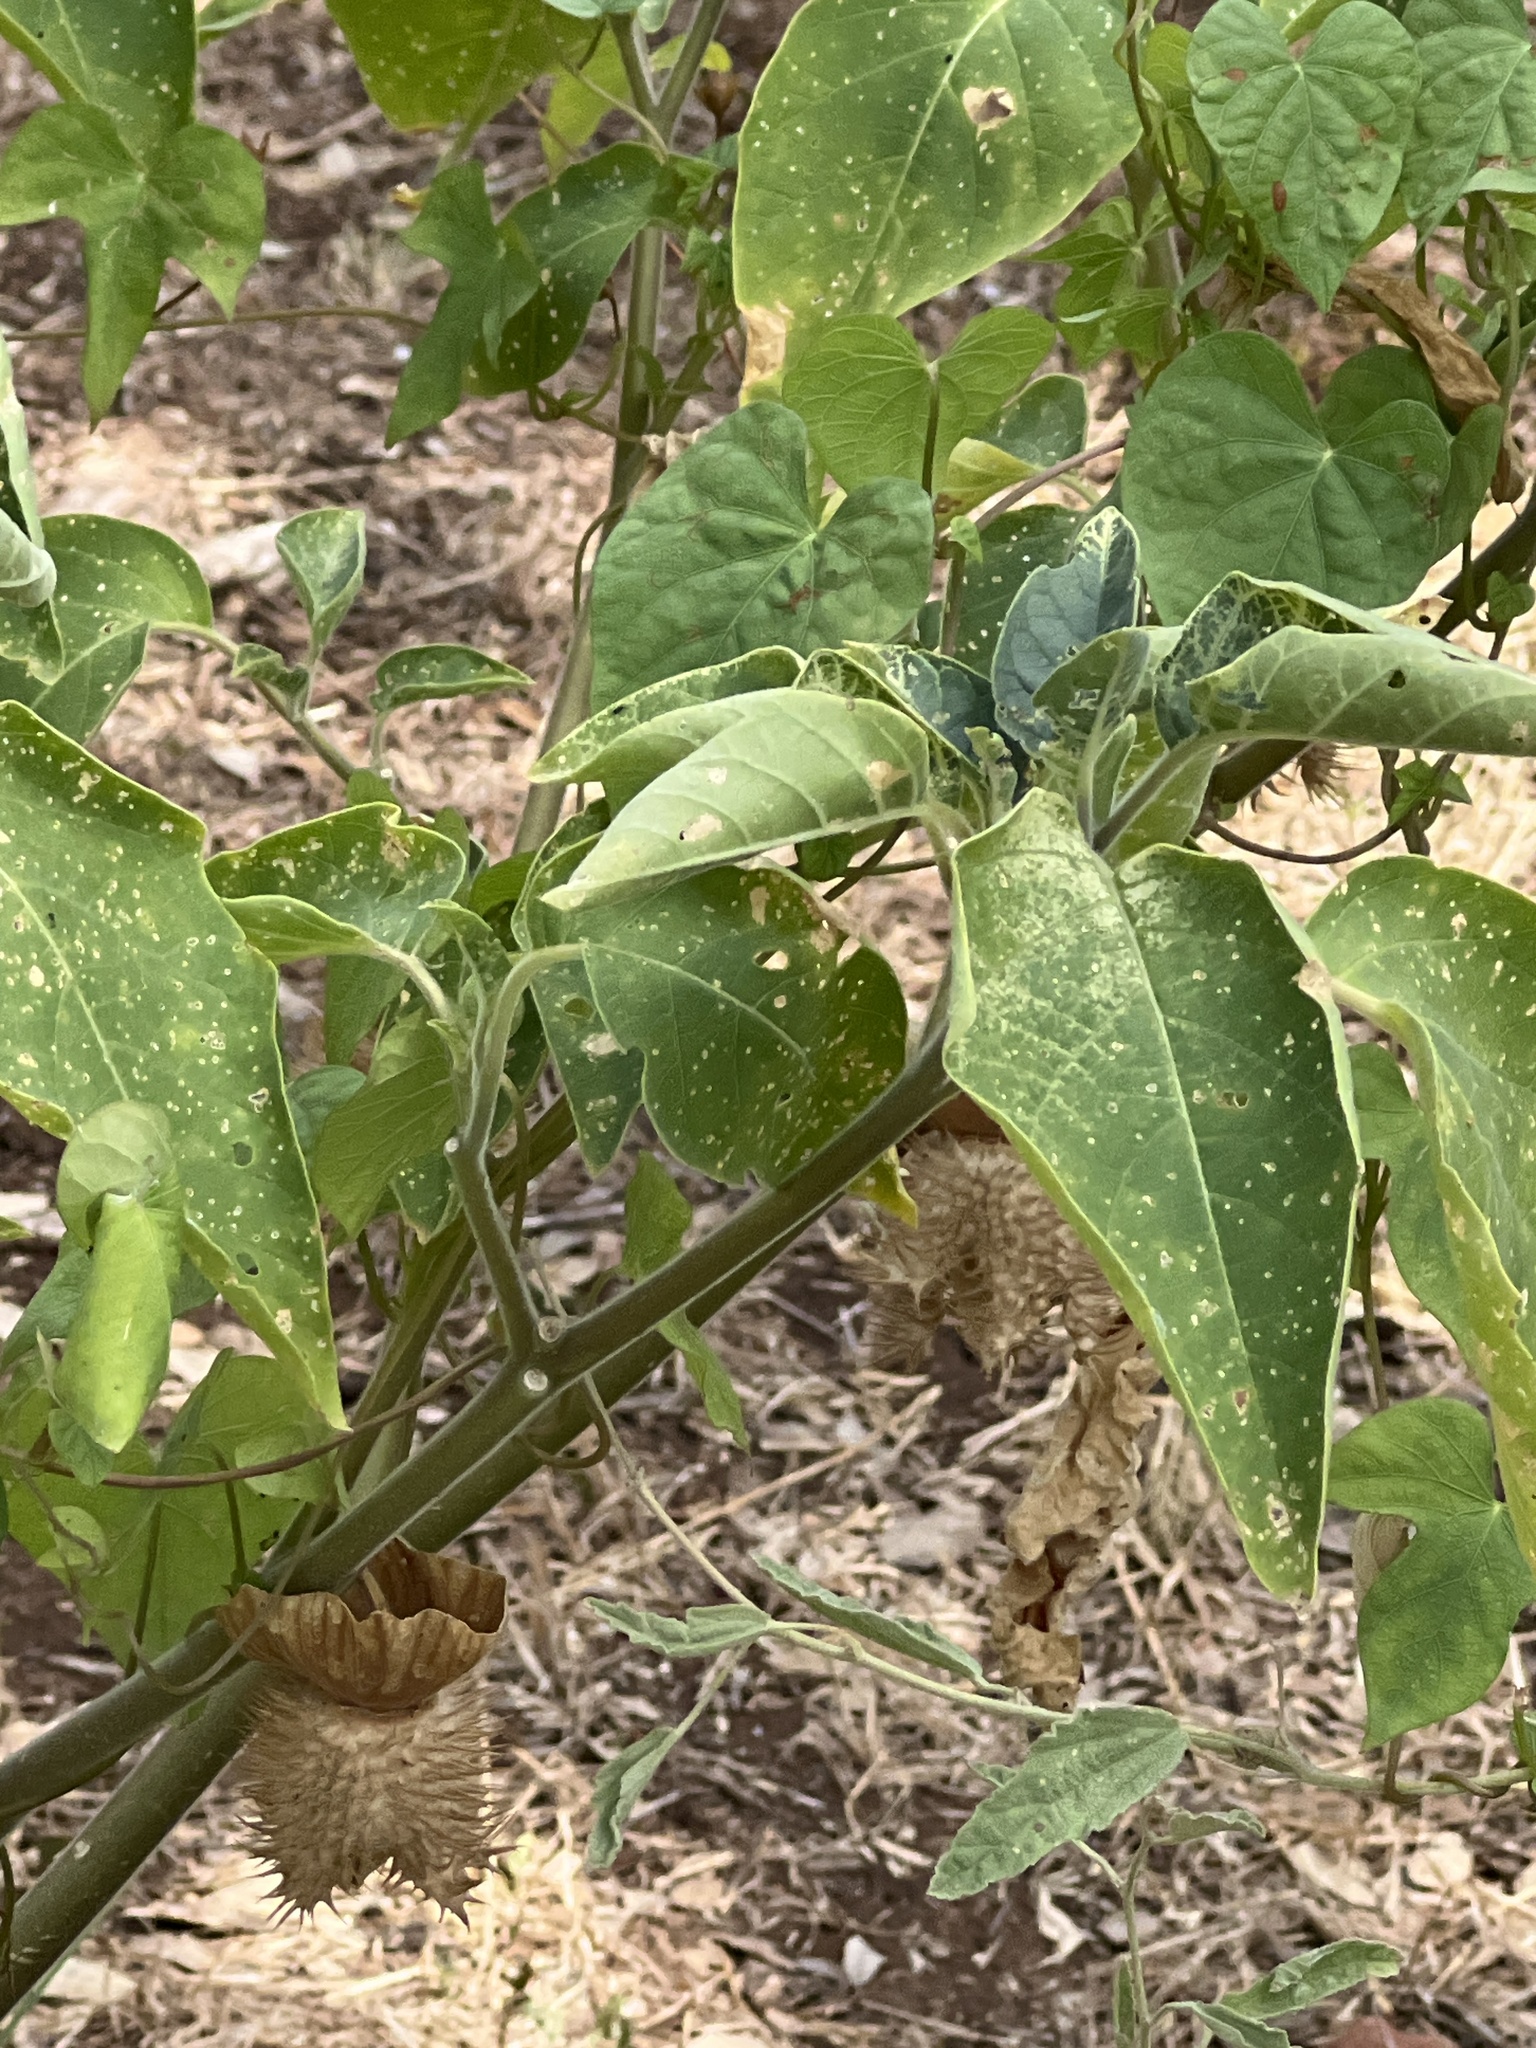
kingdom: Plantae
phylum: Tracheophyta
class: Magnoliopsida
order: Solanales
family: Solanaceae
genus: Datura
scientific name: Datura innoxia
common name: Downy thorn-apple
